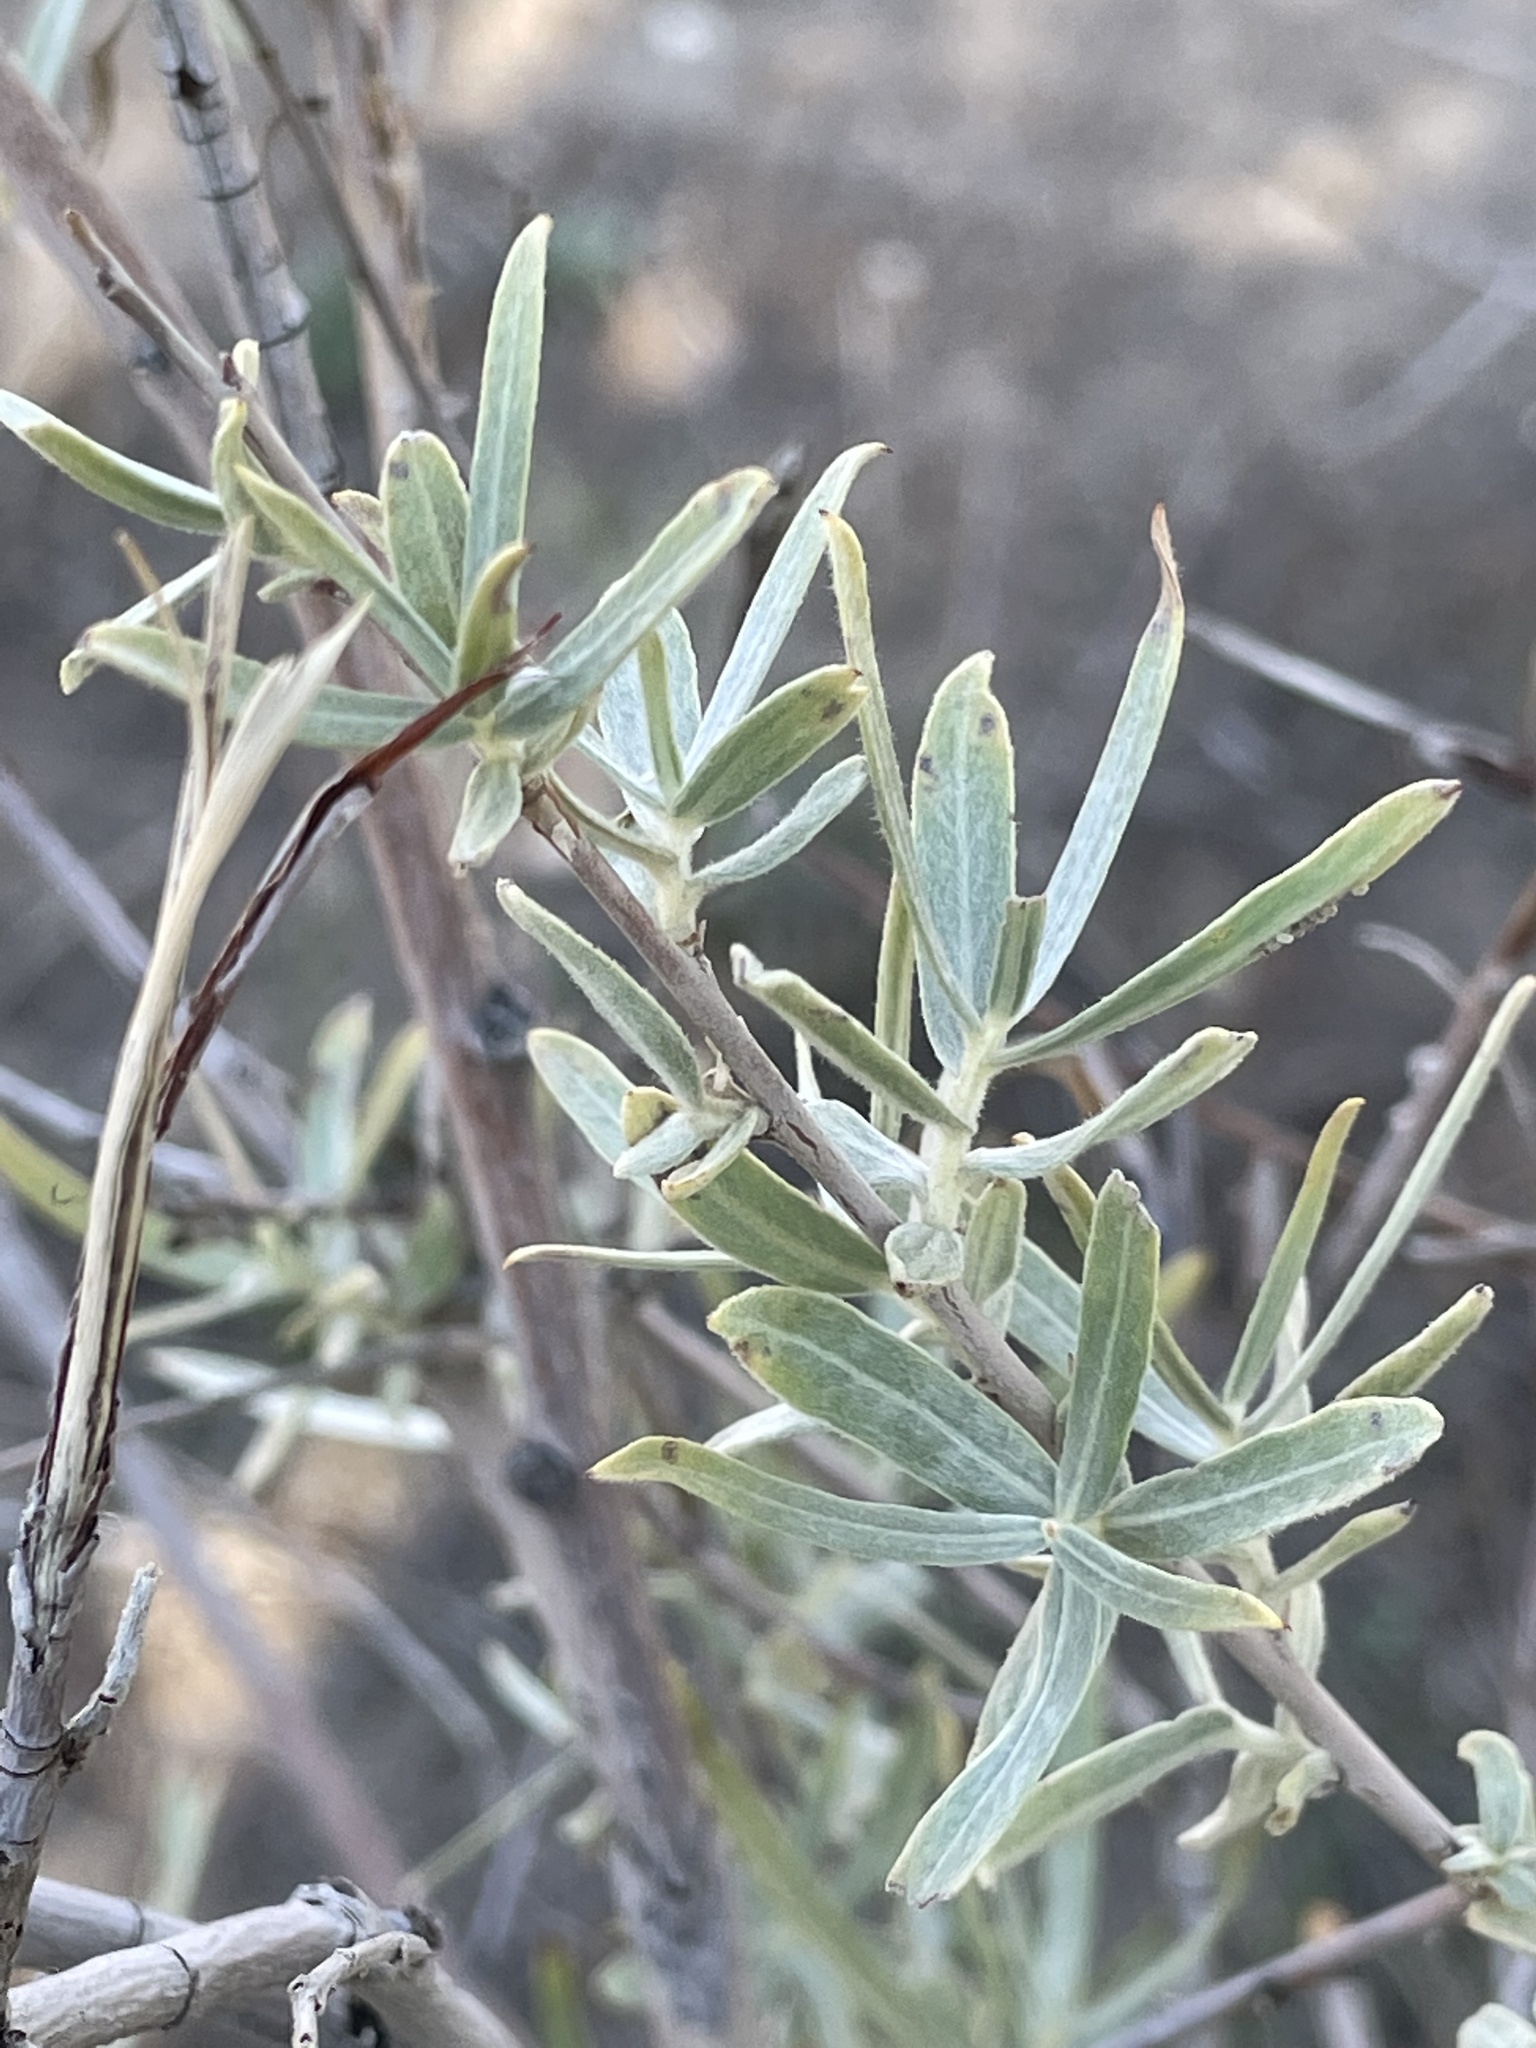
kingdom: Plantae
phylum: Tracheophyta
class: Magnoliopsida
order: Malpighiales
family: Salicaceae
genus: Salix
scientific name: Salix exigua
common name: Coyote willow
